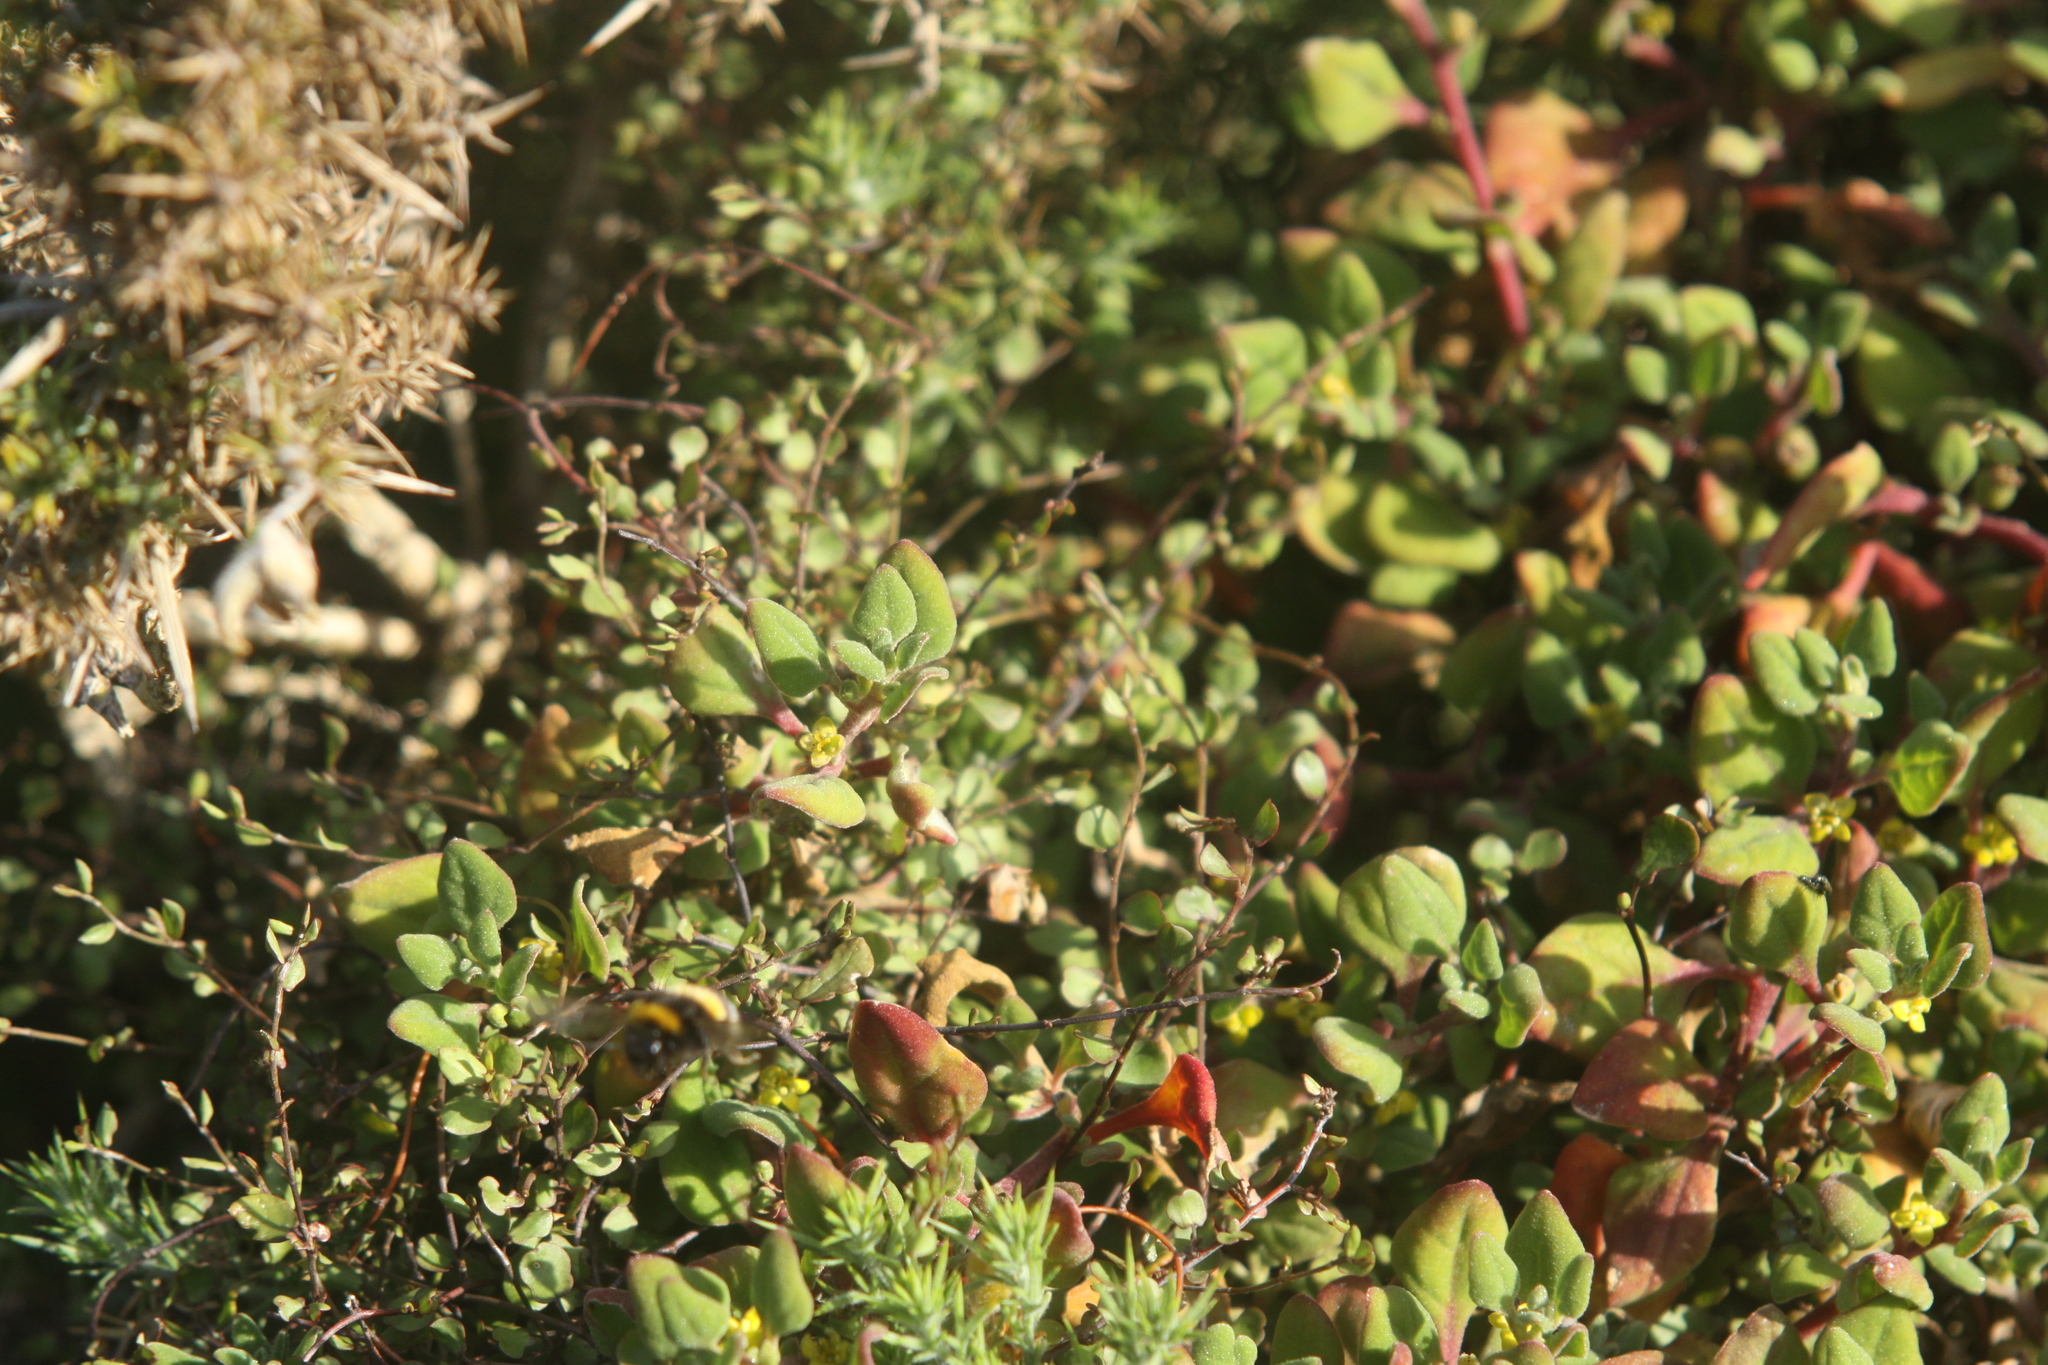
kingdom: Plantae
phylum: Tracheophyta
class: Magnoliopsida
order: Caryophyllales
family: Aizoaceae
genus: Tetragonia
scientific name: Tetragonia implexicoma
